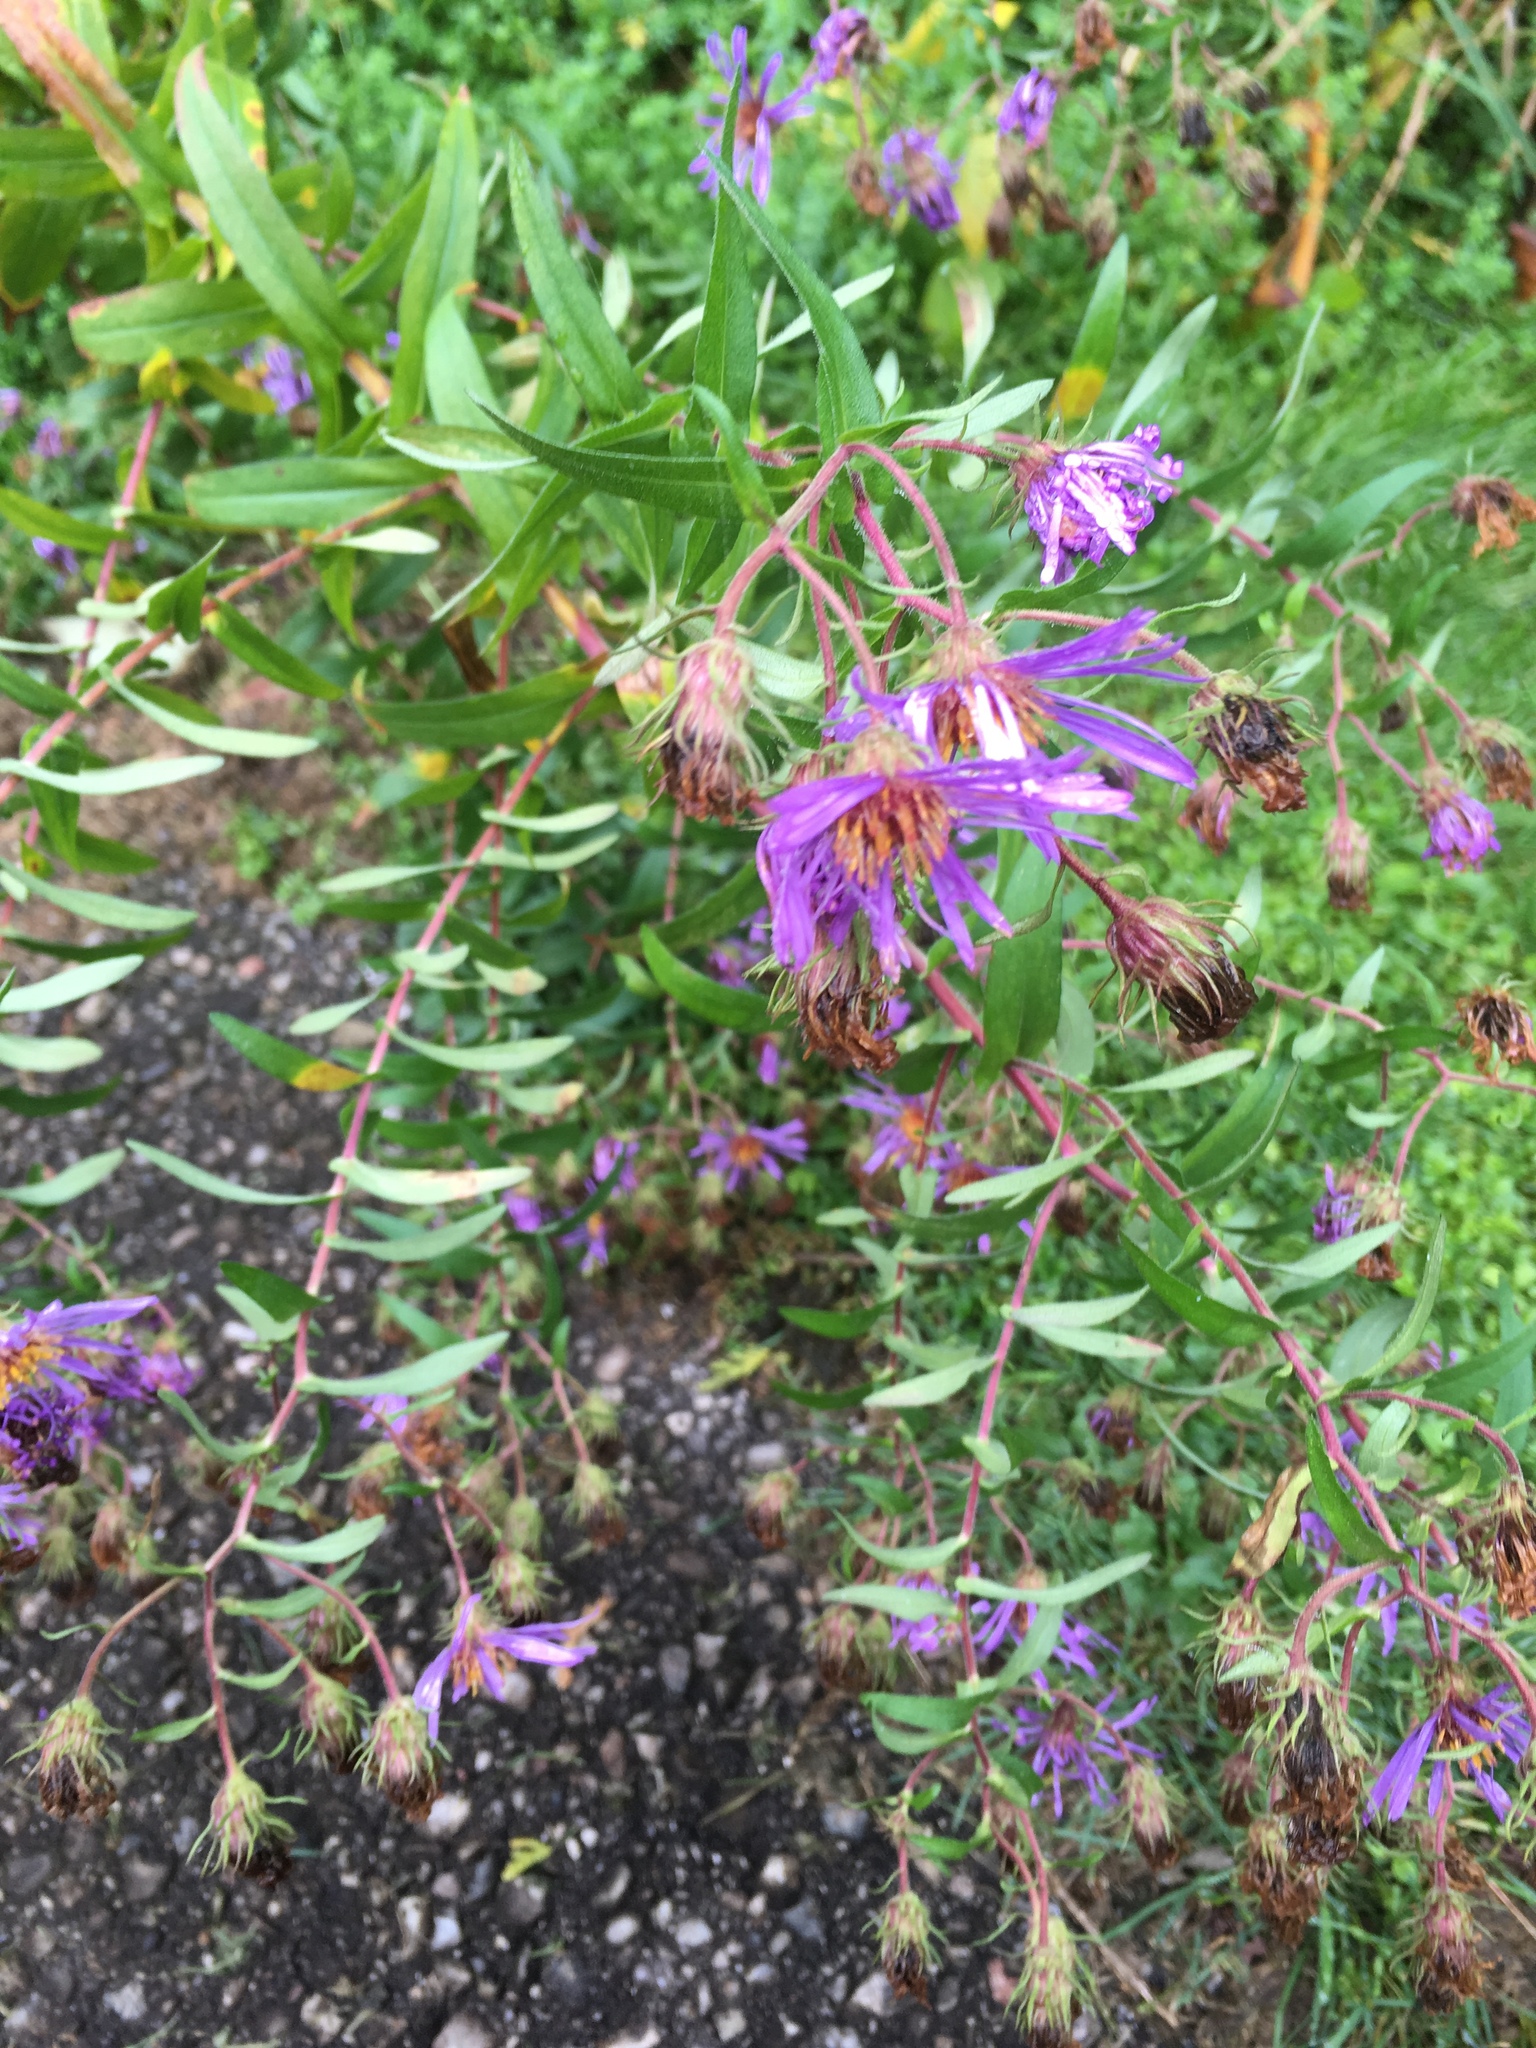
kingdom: Plantae
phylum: Tracheophyta
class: Magnoliopsida
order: Asterales
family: Asteraceae
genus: Symphyotrichum
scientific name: Symphyotrichum novae-angliae
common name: Michaelmas daisy
